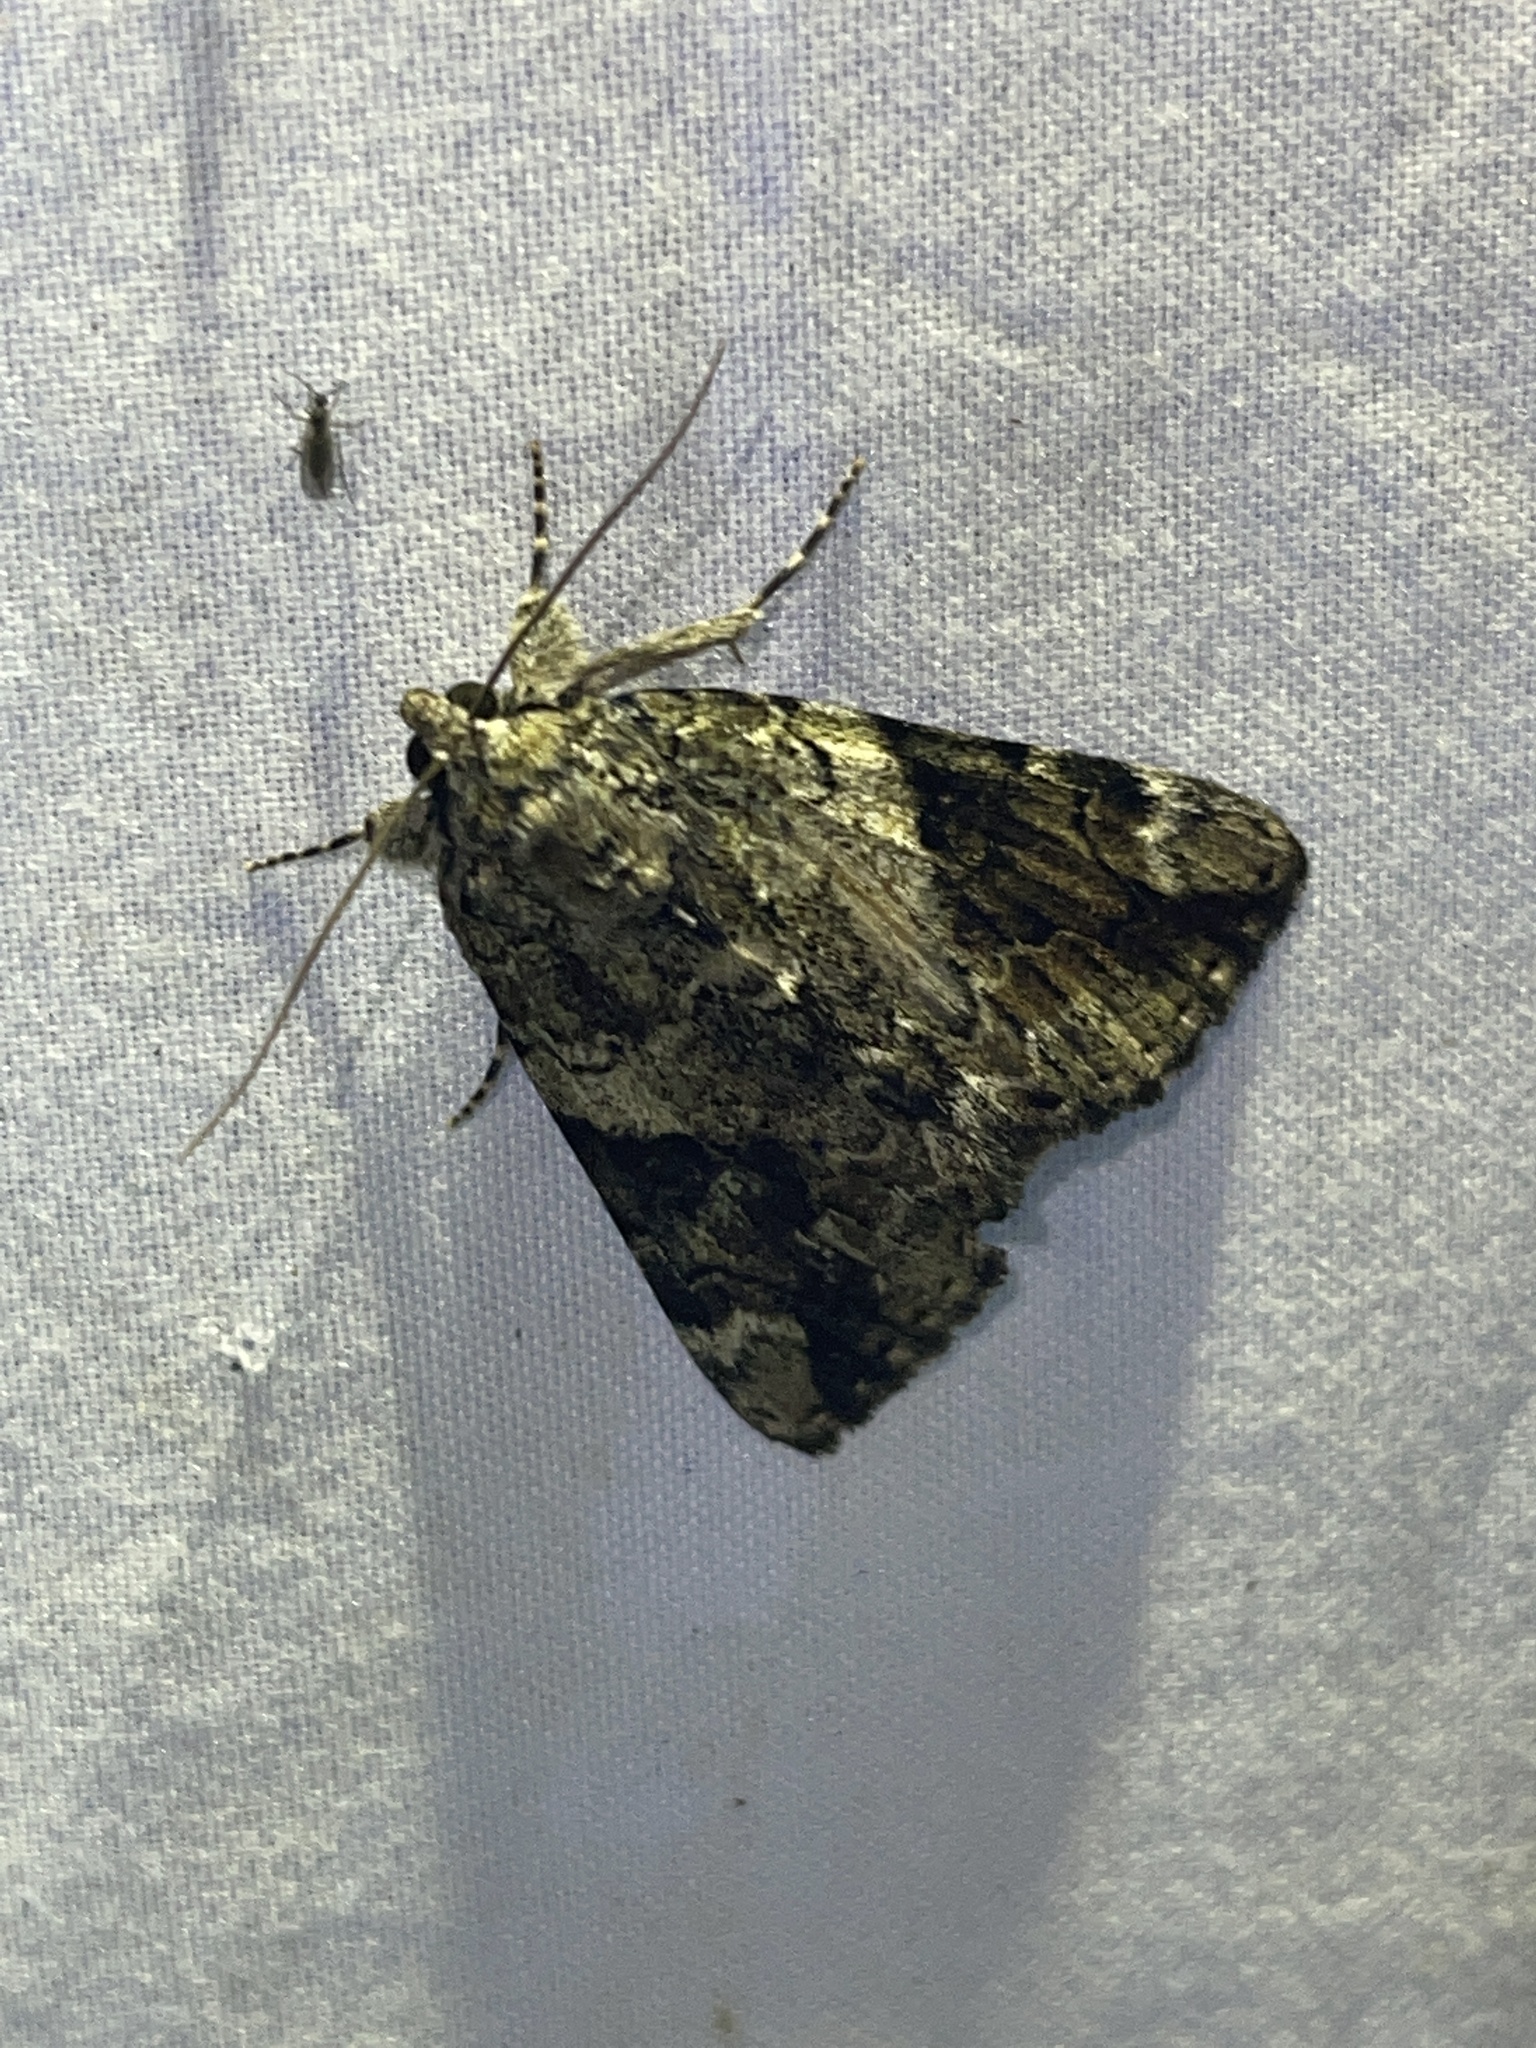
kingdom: Animalia
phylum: Arthropoda
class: Insecta
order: Lepidoptera
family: Erebidae
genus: Catocala
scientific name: Catocala micronympha
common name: Little nymph underwing
